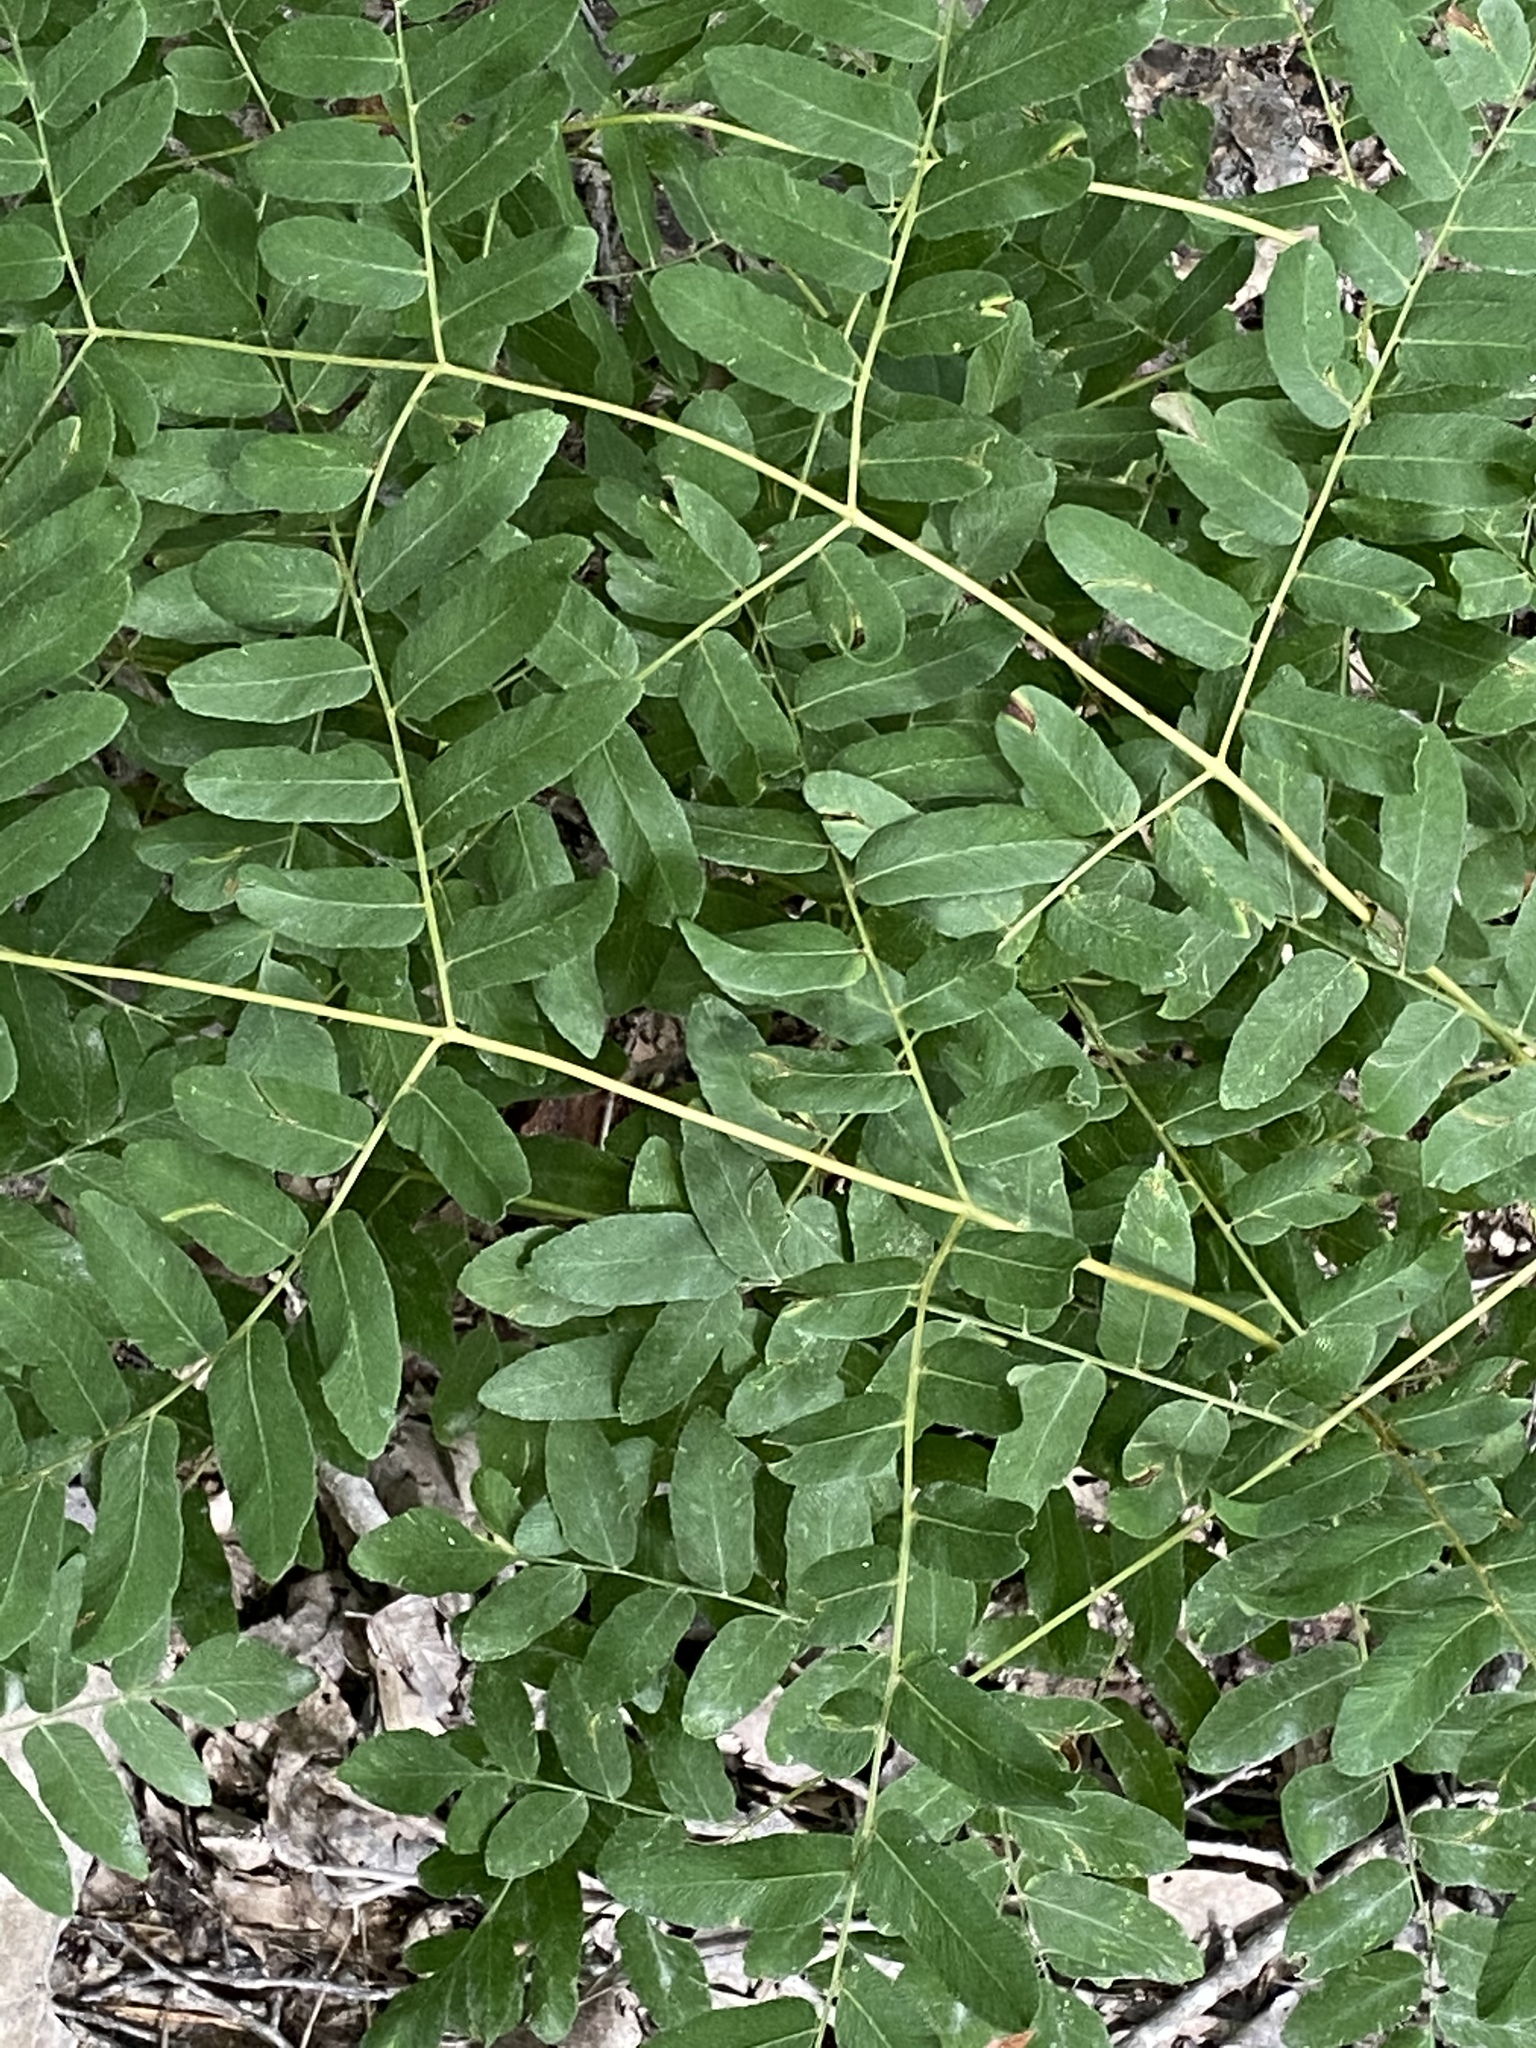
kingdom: Plantae
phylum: Tracheophyta
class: Polypodiopsida
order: Osmundales
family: Osmundaceae
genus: Osmunda
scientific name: Osmunda spectabilis
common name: American royal fern
